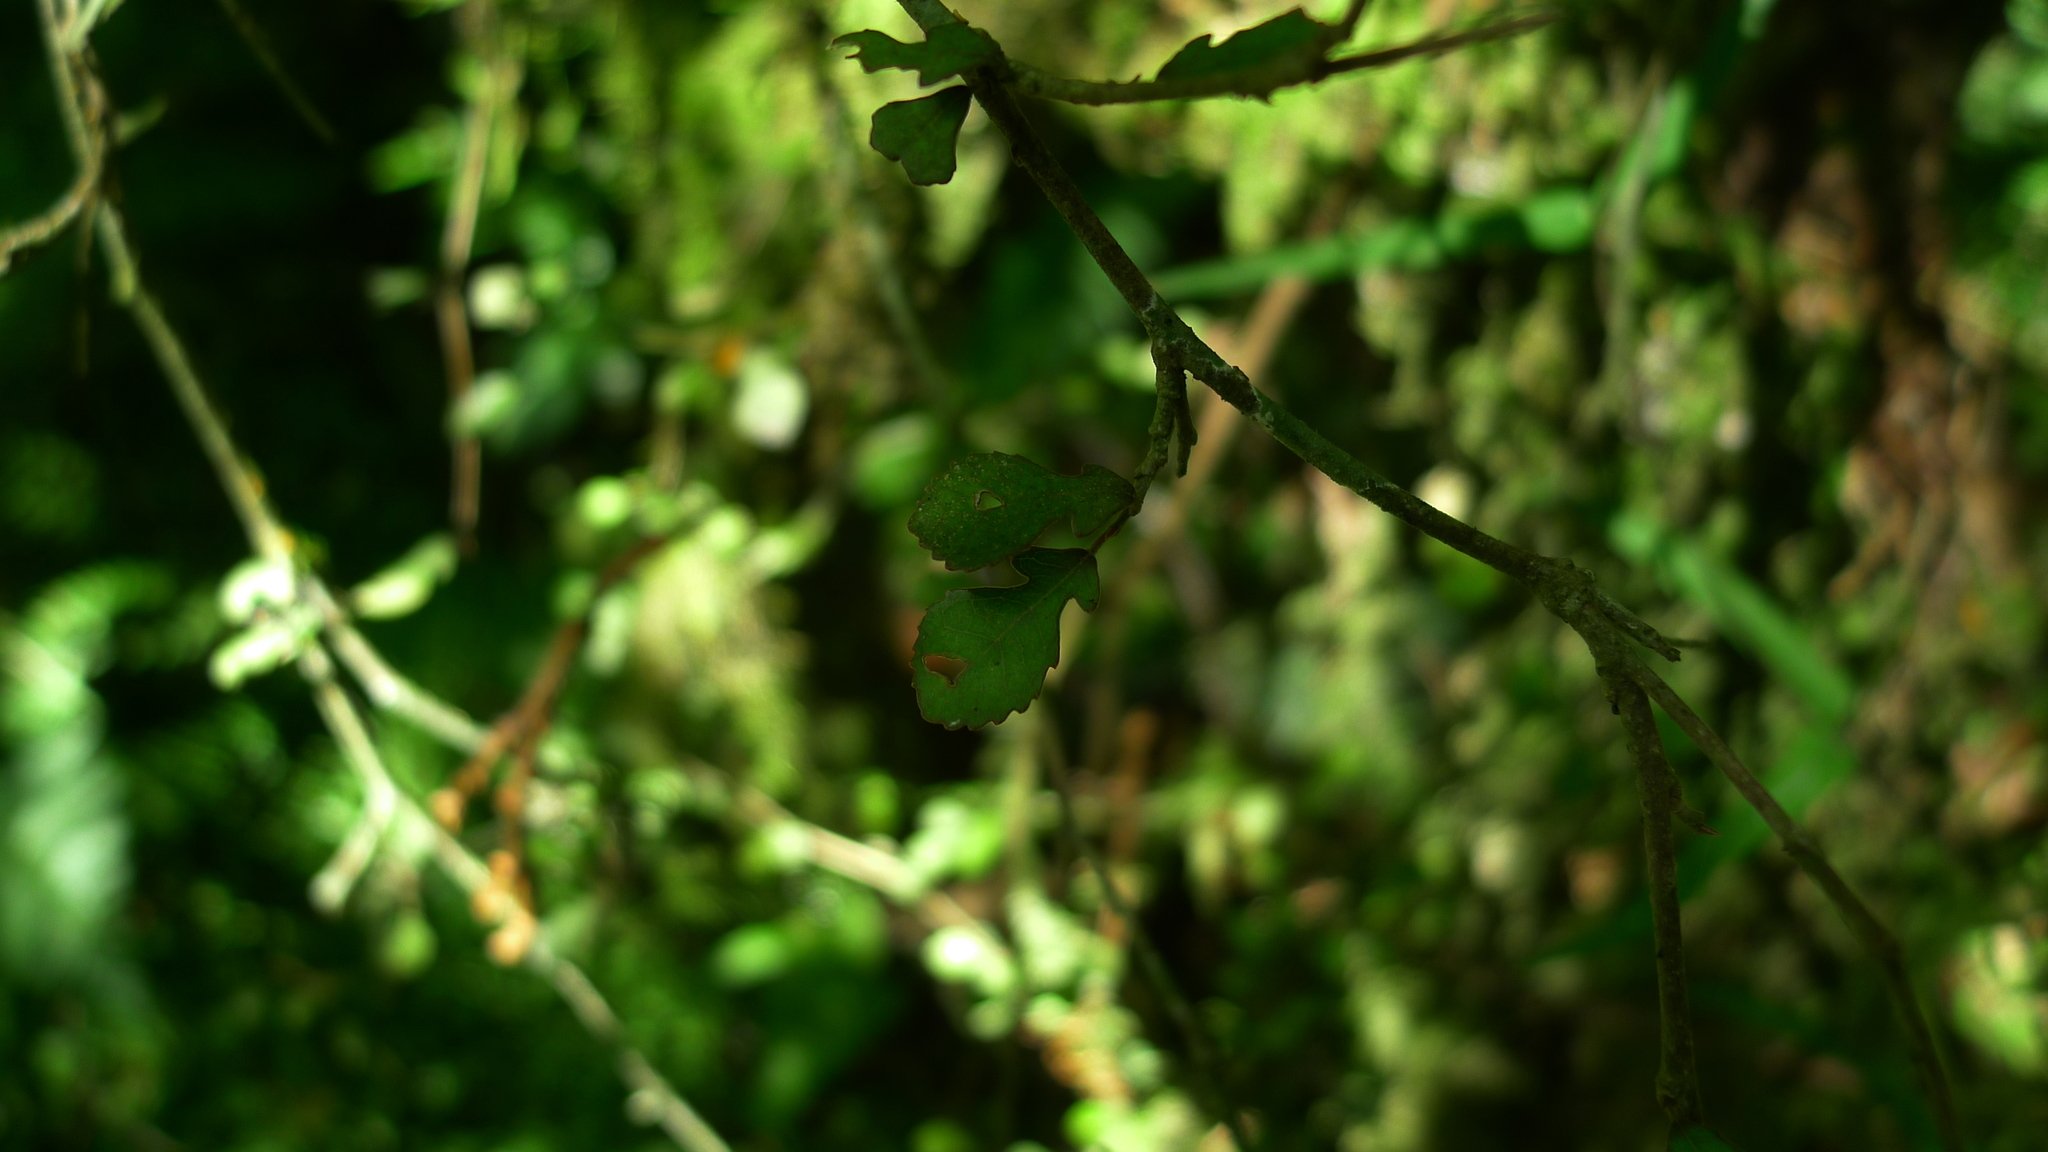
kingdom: Plantae
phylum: Tracheophyta
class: Magnoliopsida
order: Rosales
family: Moraceae
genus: Paratrophis
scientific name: Paratrophis microphylla
